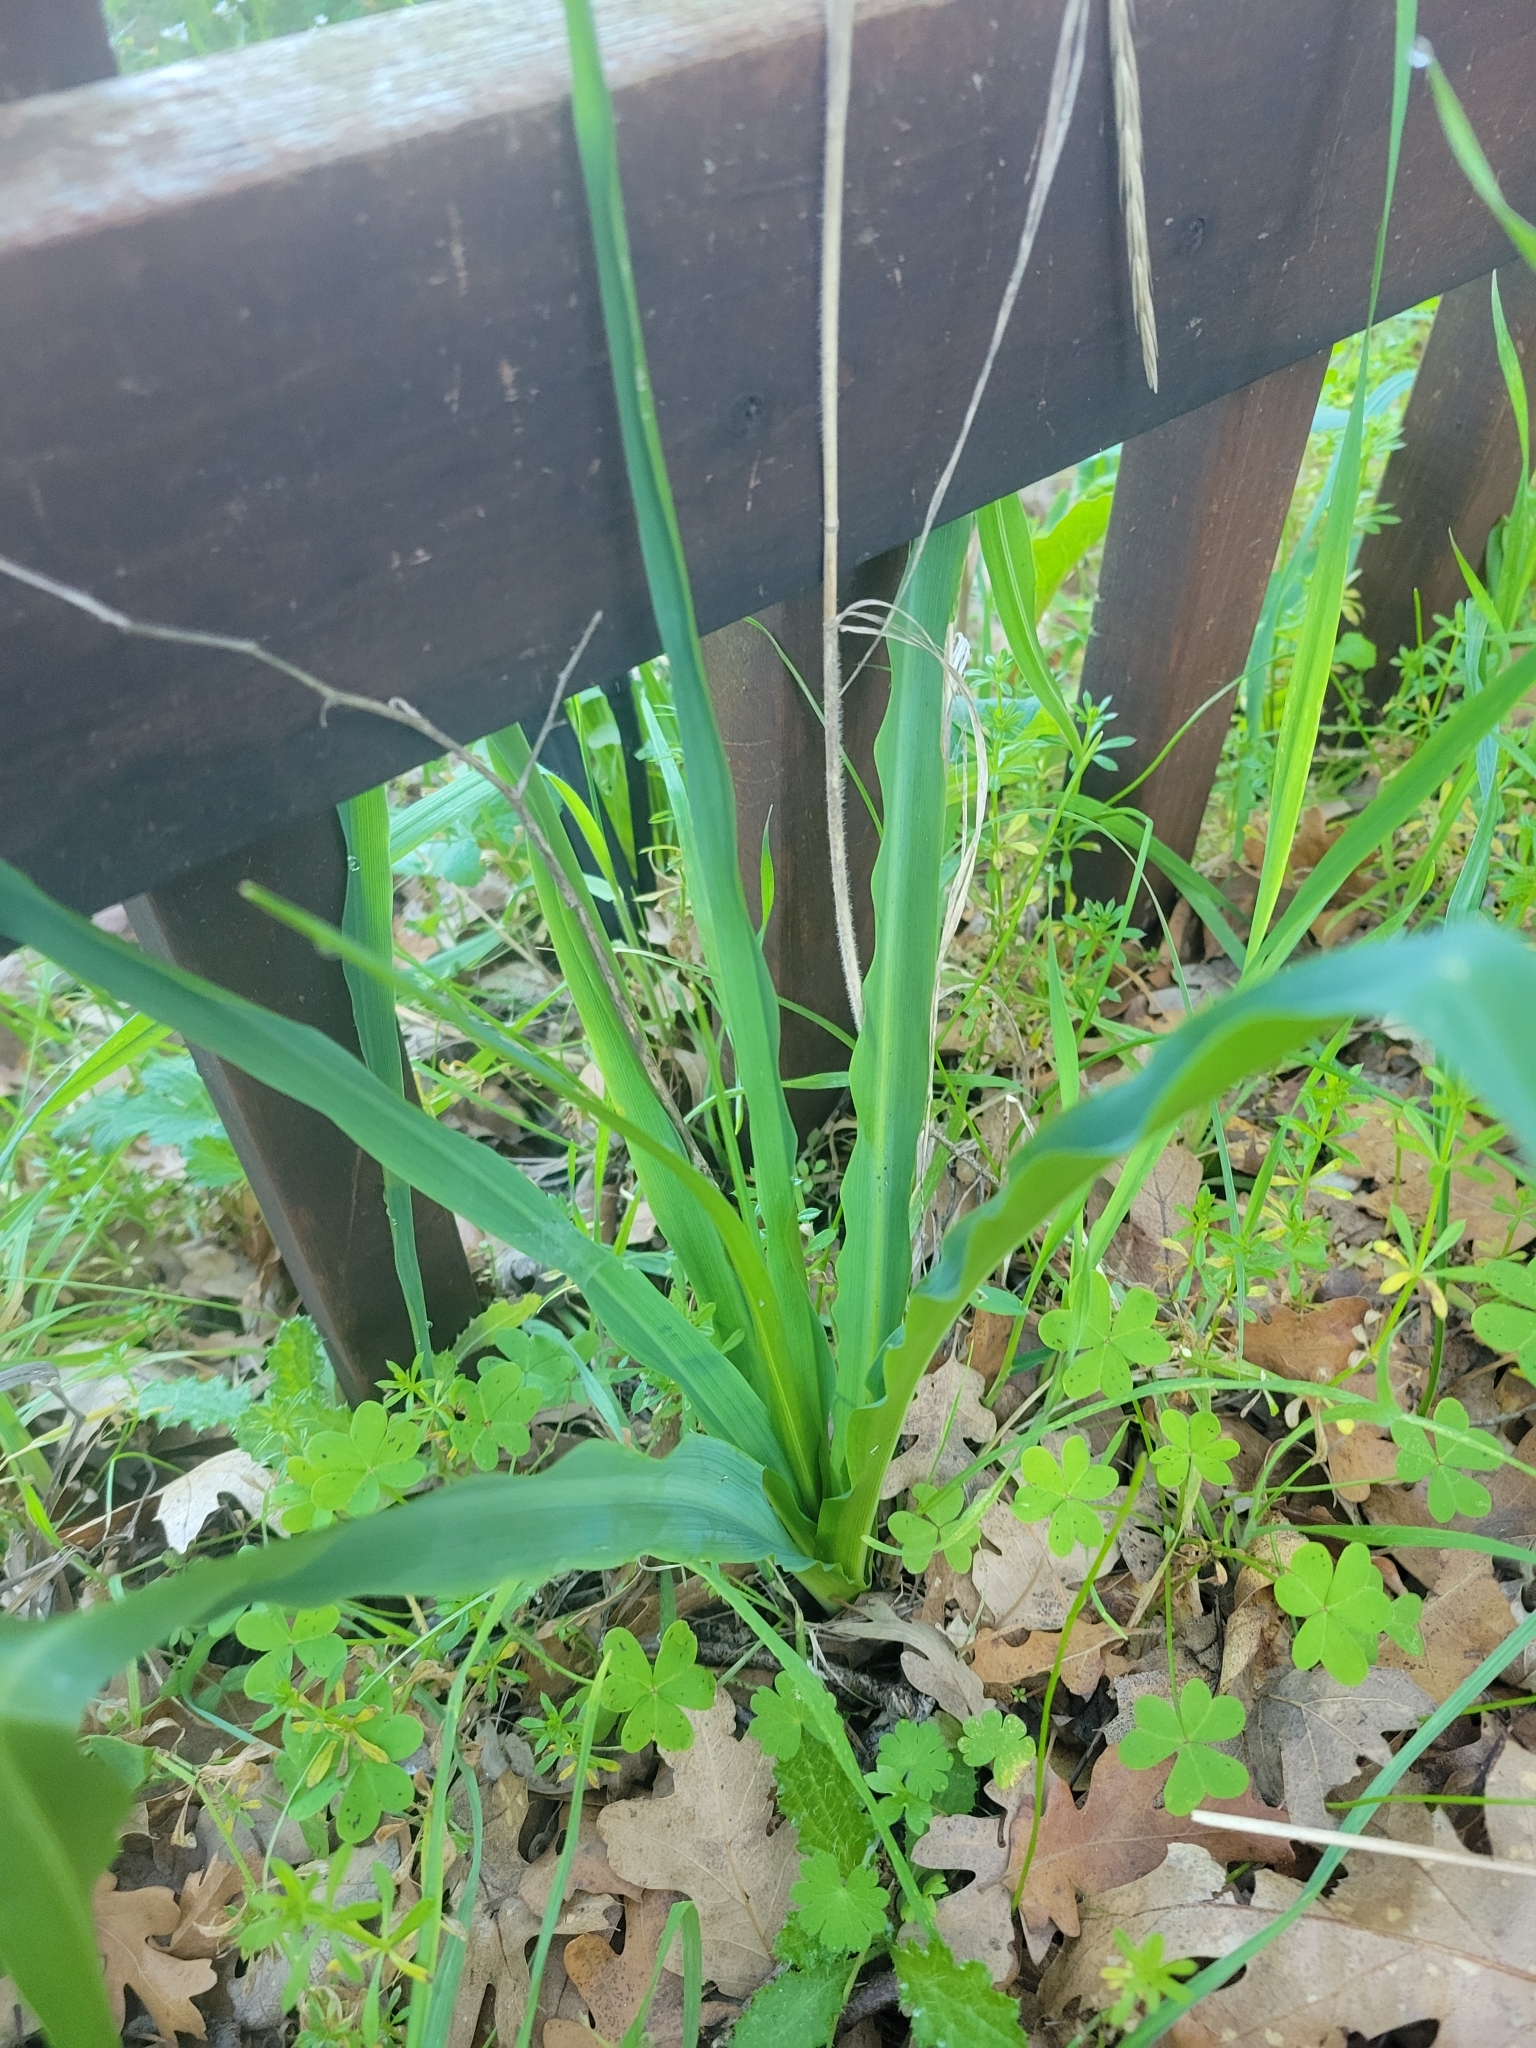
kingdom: Plantae
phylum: Tracheophyta
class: Liliopsida
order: Asparagales
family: Asparagaceae
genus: Chlorogalum
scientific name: Chlorogalum pomeridianum
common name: Amole
